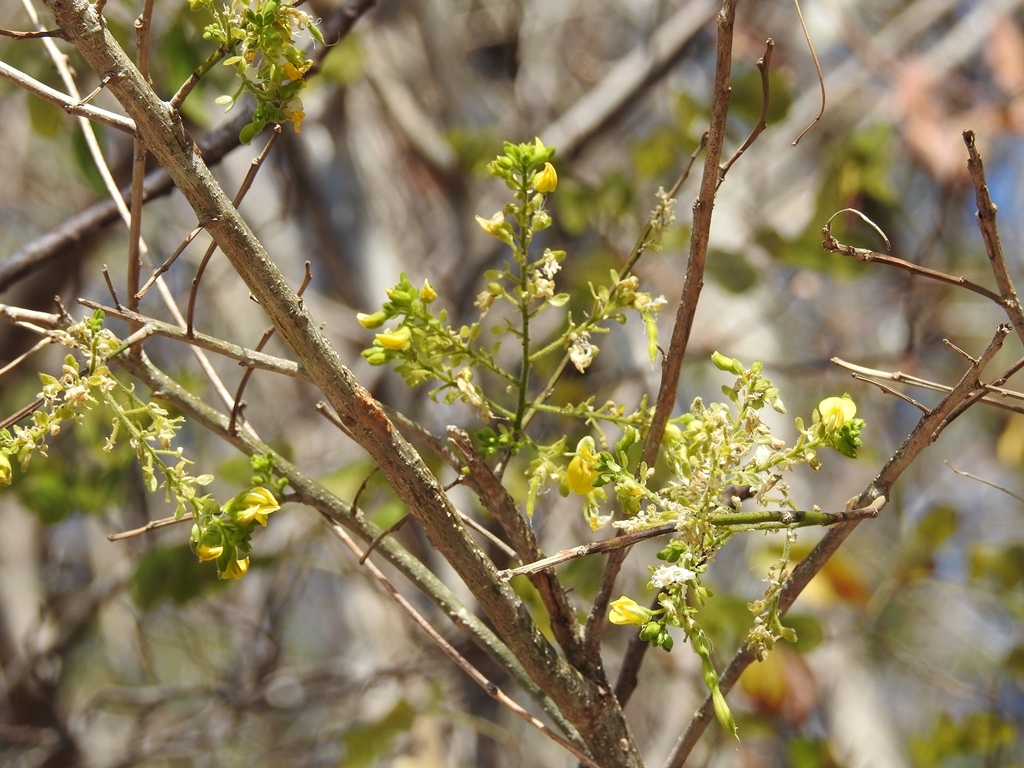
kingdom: Plantae
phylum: Tracheophyta
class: Magnoliopsida
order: Fabales
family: Fabaceae
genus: Diphysa
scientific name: Diphysa floribunda
